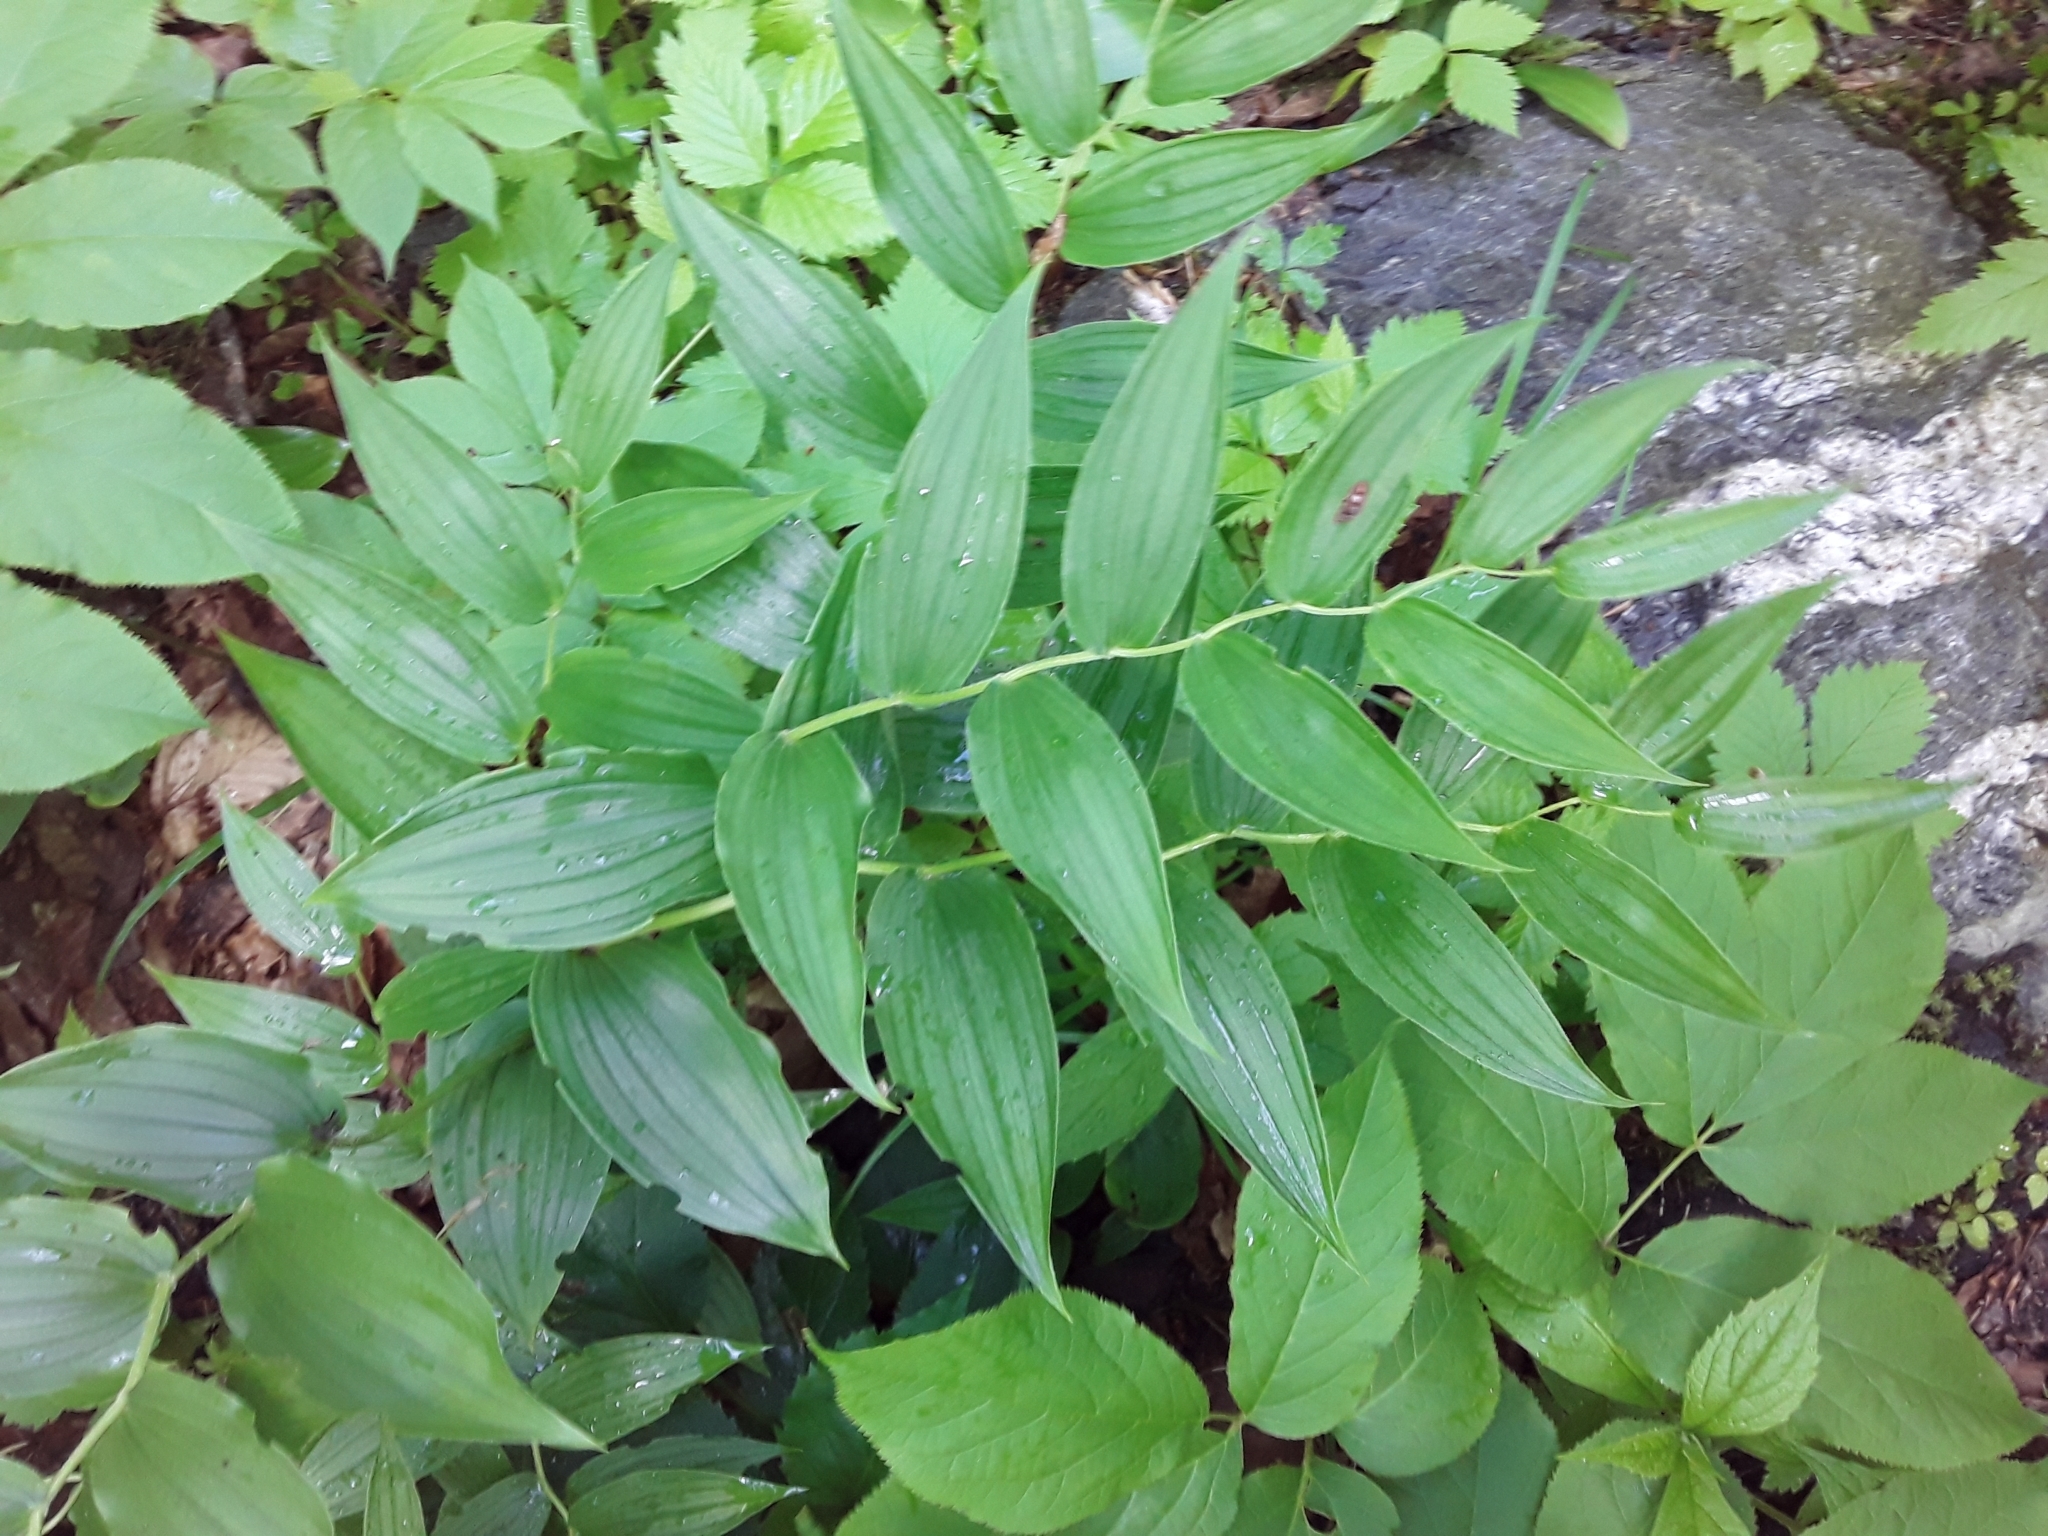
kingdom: Plantae
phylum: Tracheophyta
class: Liliopsida
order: Liliales
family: Liliaceae
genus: Streptopus
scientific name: Streptopus lanceolatus
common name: Rose mandarin
